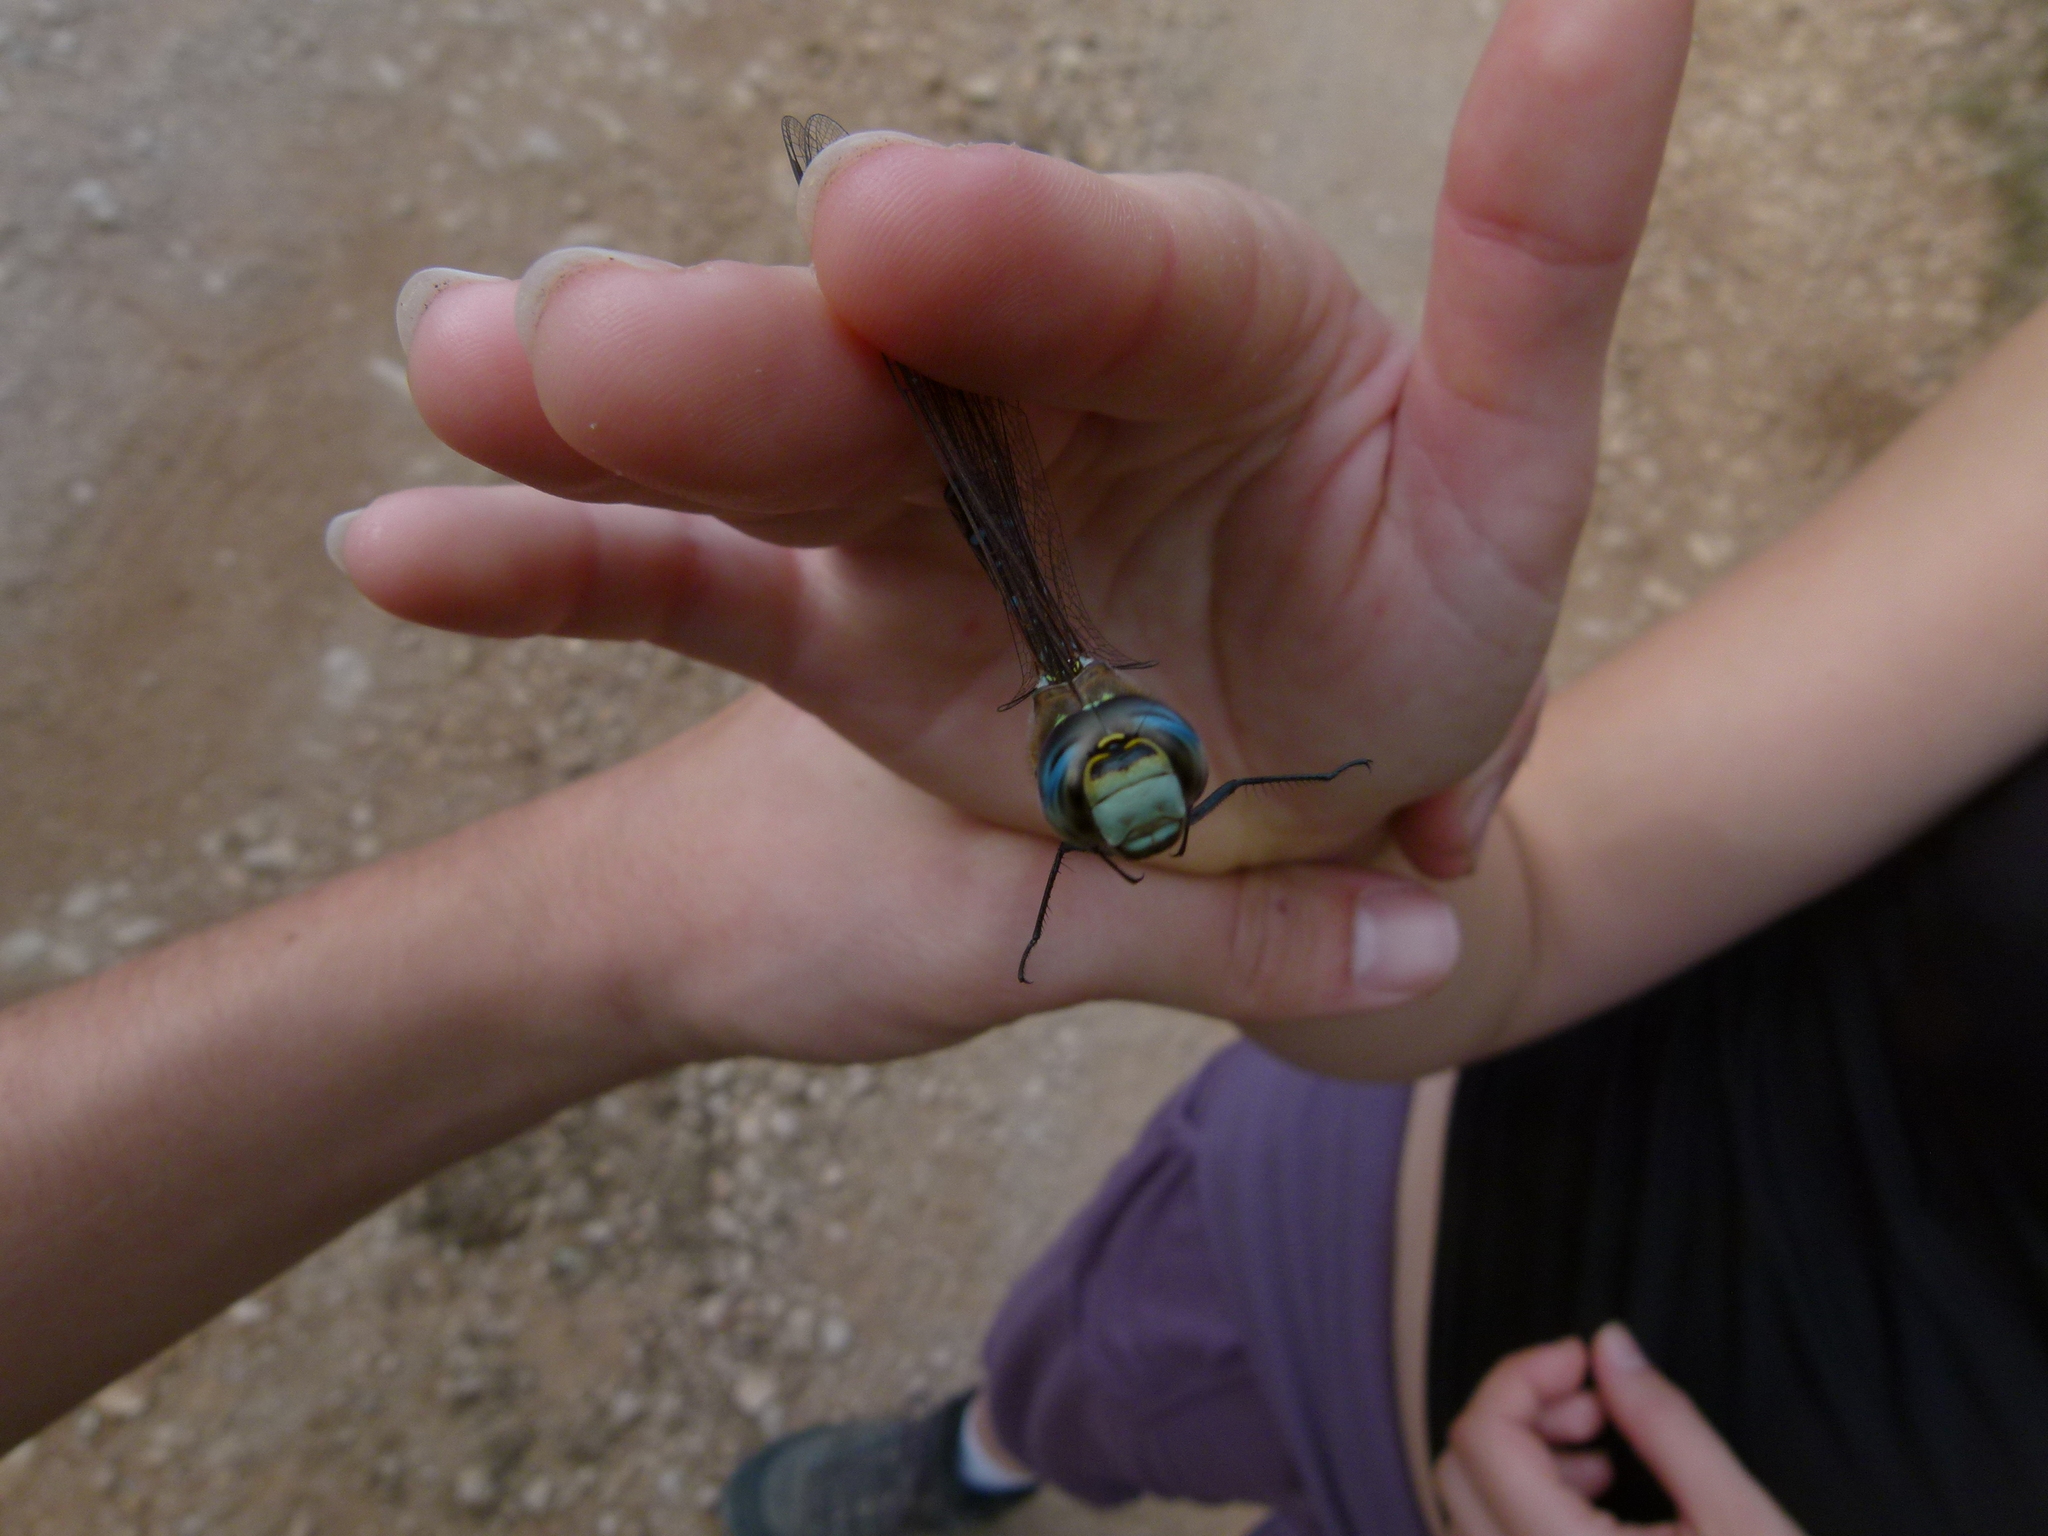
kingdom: Animalia
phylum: Arthropoda
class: Insecta
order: Odonata
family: Aeshnidae
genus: Aeshna
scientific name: Aeshna mixta
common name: Migrant hawker
